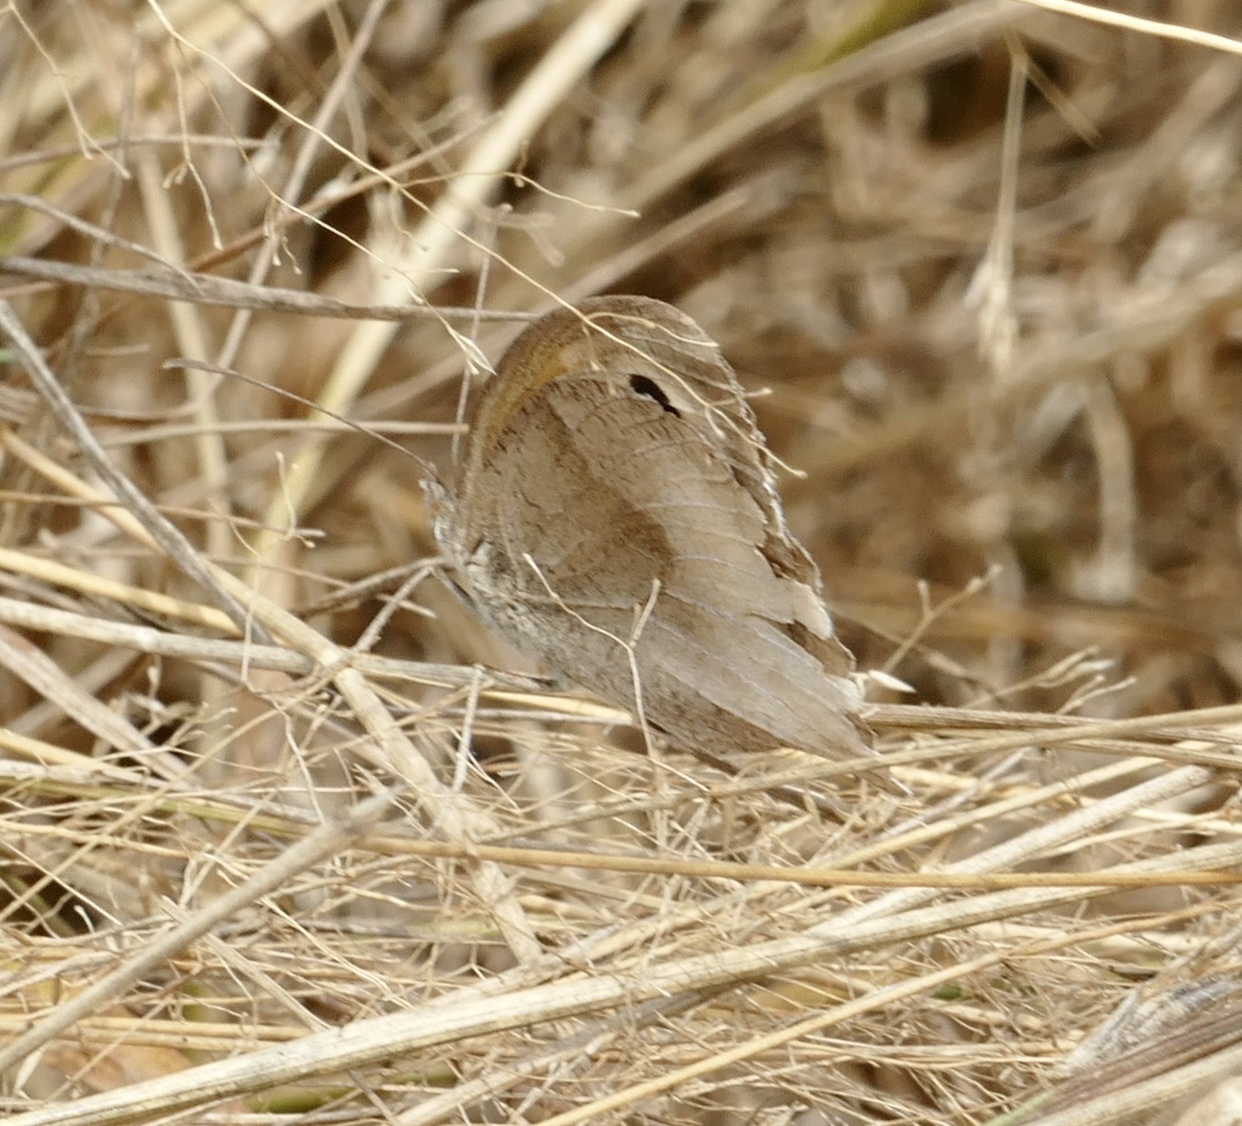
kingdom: Animalia
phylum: Arthropoda
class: Insecta
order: Lepidoptera
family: Nymphalidae
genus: Maniola
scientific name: Maniola jurtina
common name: Meadow brown
